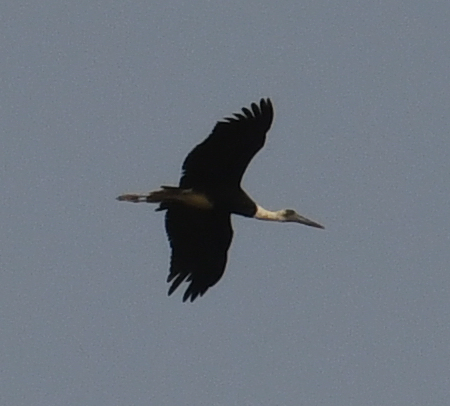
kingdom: Animalia
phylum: Chordata
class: Aves
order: Ciconiiformes
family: Ciconiidae
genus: Ciconia
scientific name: Ciconia microscelis
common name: African woollyneck
